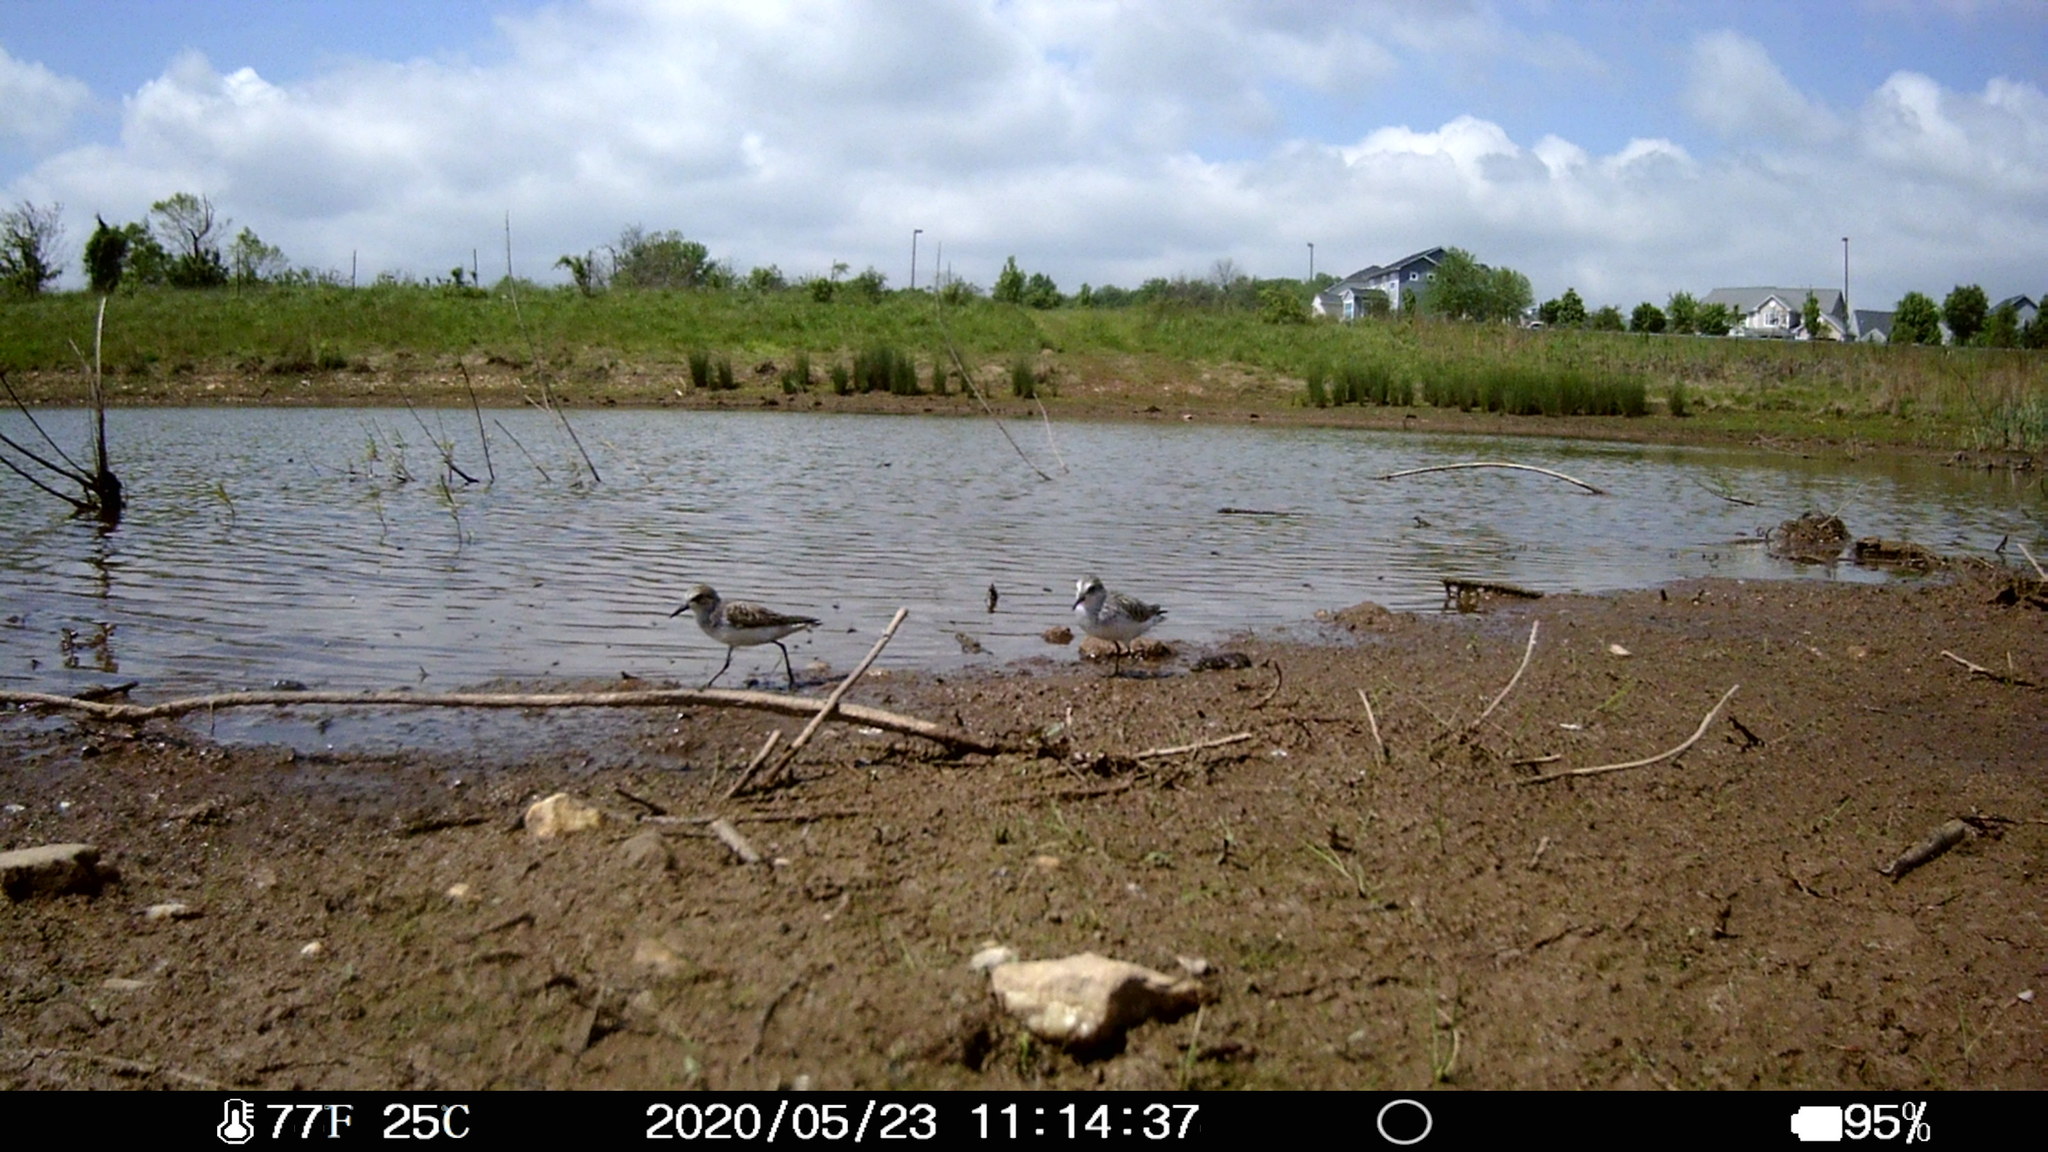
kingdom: Animalia
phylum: Chordata
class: Aves
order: Charadriiformes
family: Scolopacidae
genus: Calidris
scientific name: Calidris pusilla
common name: Semipalmated sandpiper
